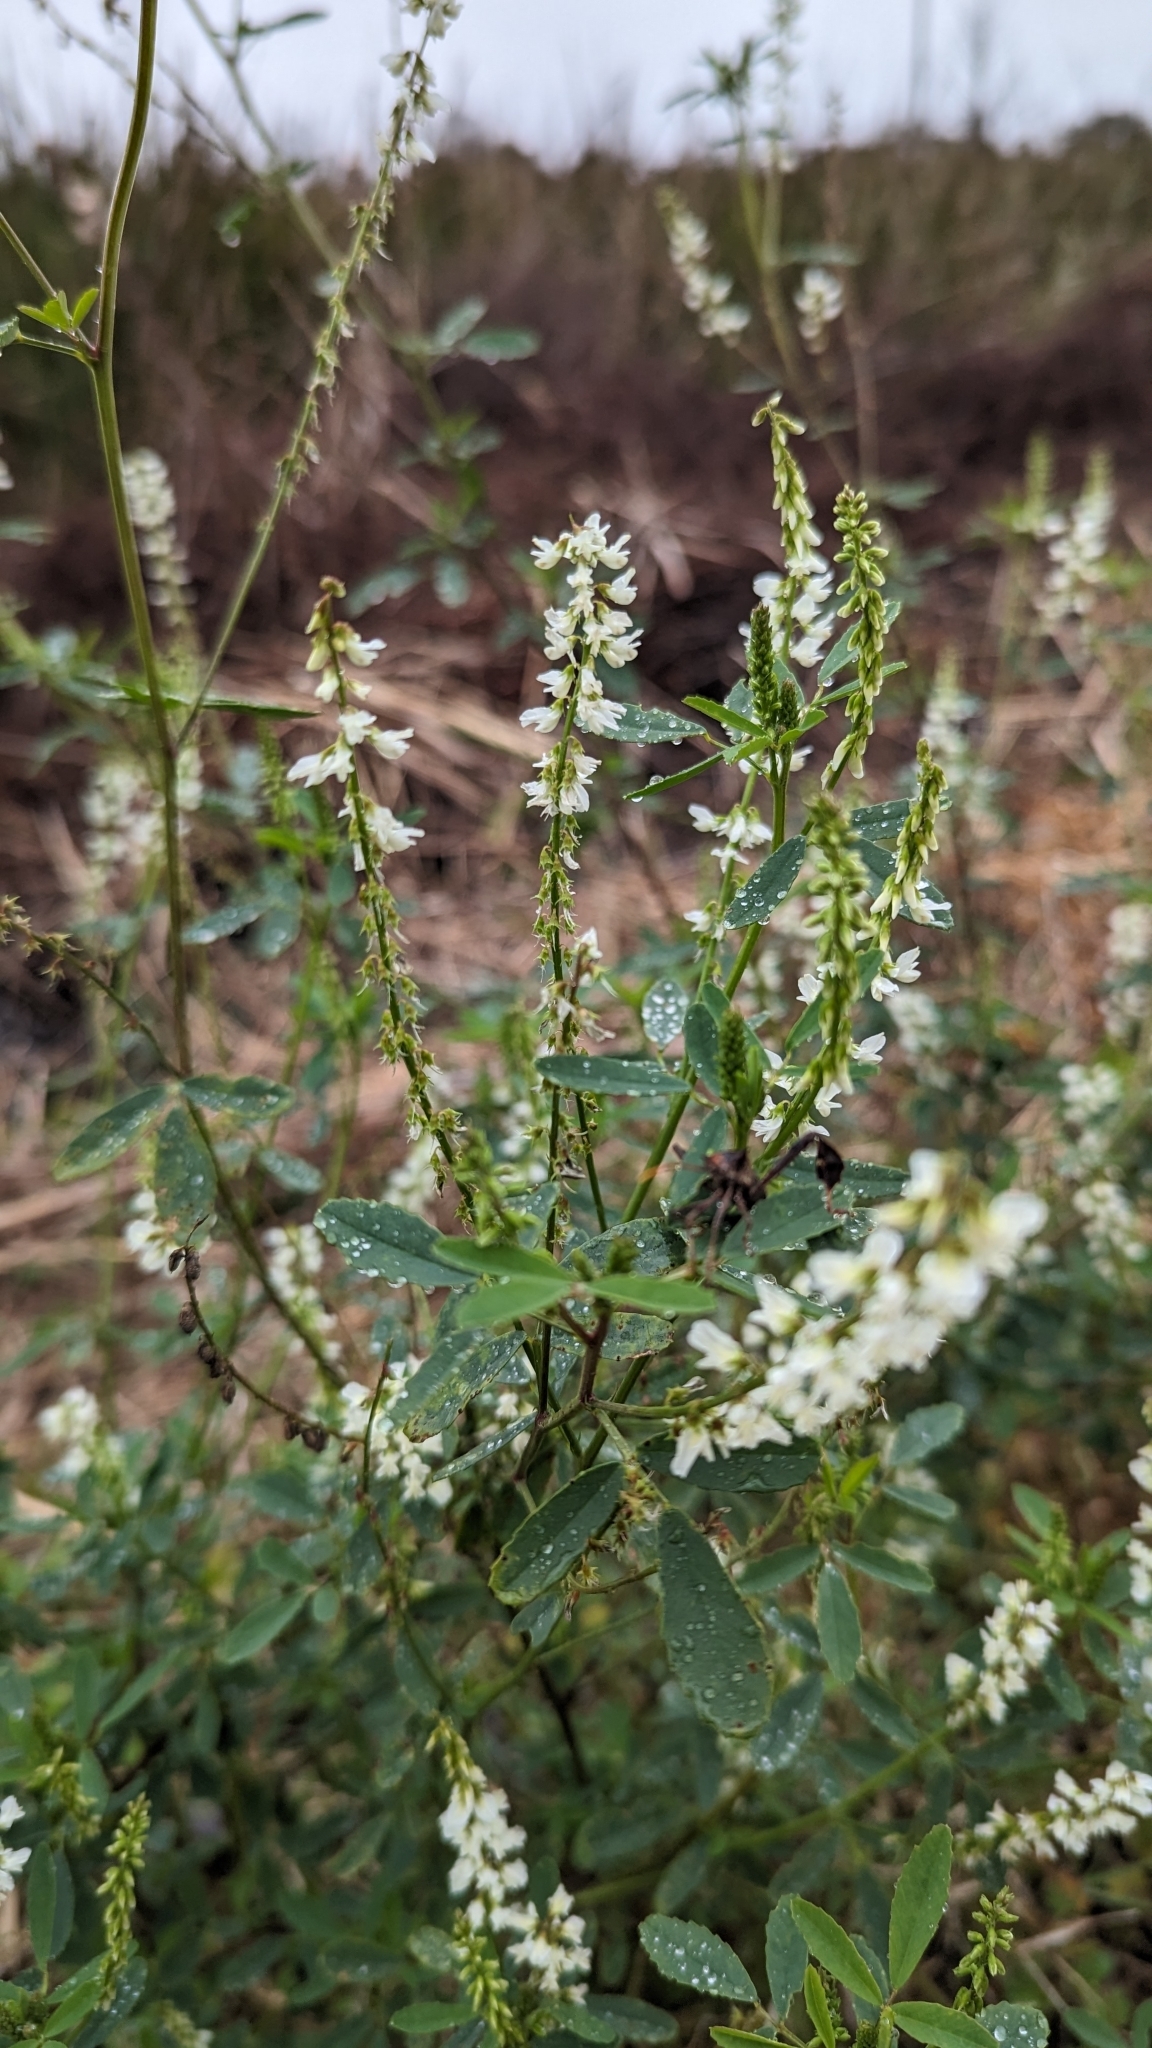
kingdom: Plantae
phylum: Tracheophyta
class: Magnoliopsida
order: Fabales
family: Fabaceae
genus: Melilotus
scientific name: Melilotus albus
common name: White melilot
